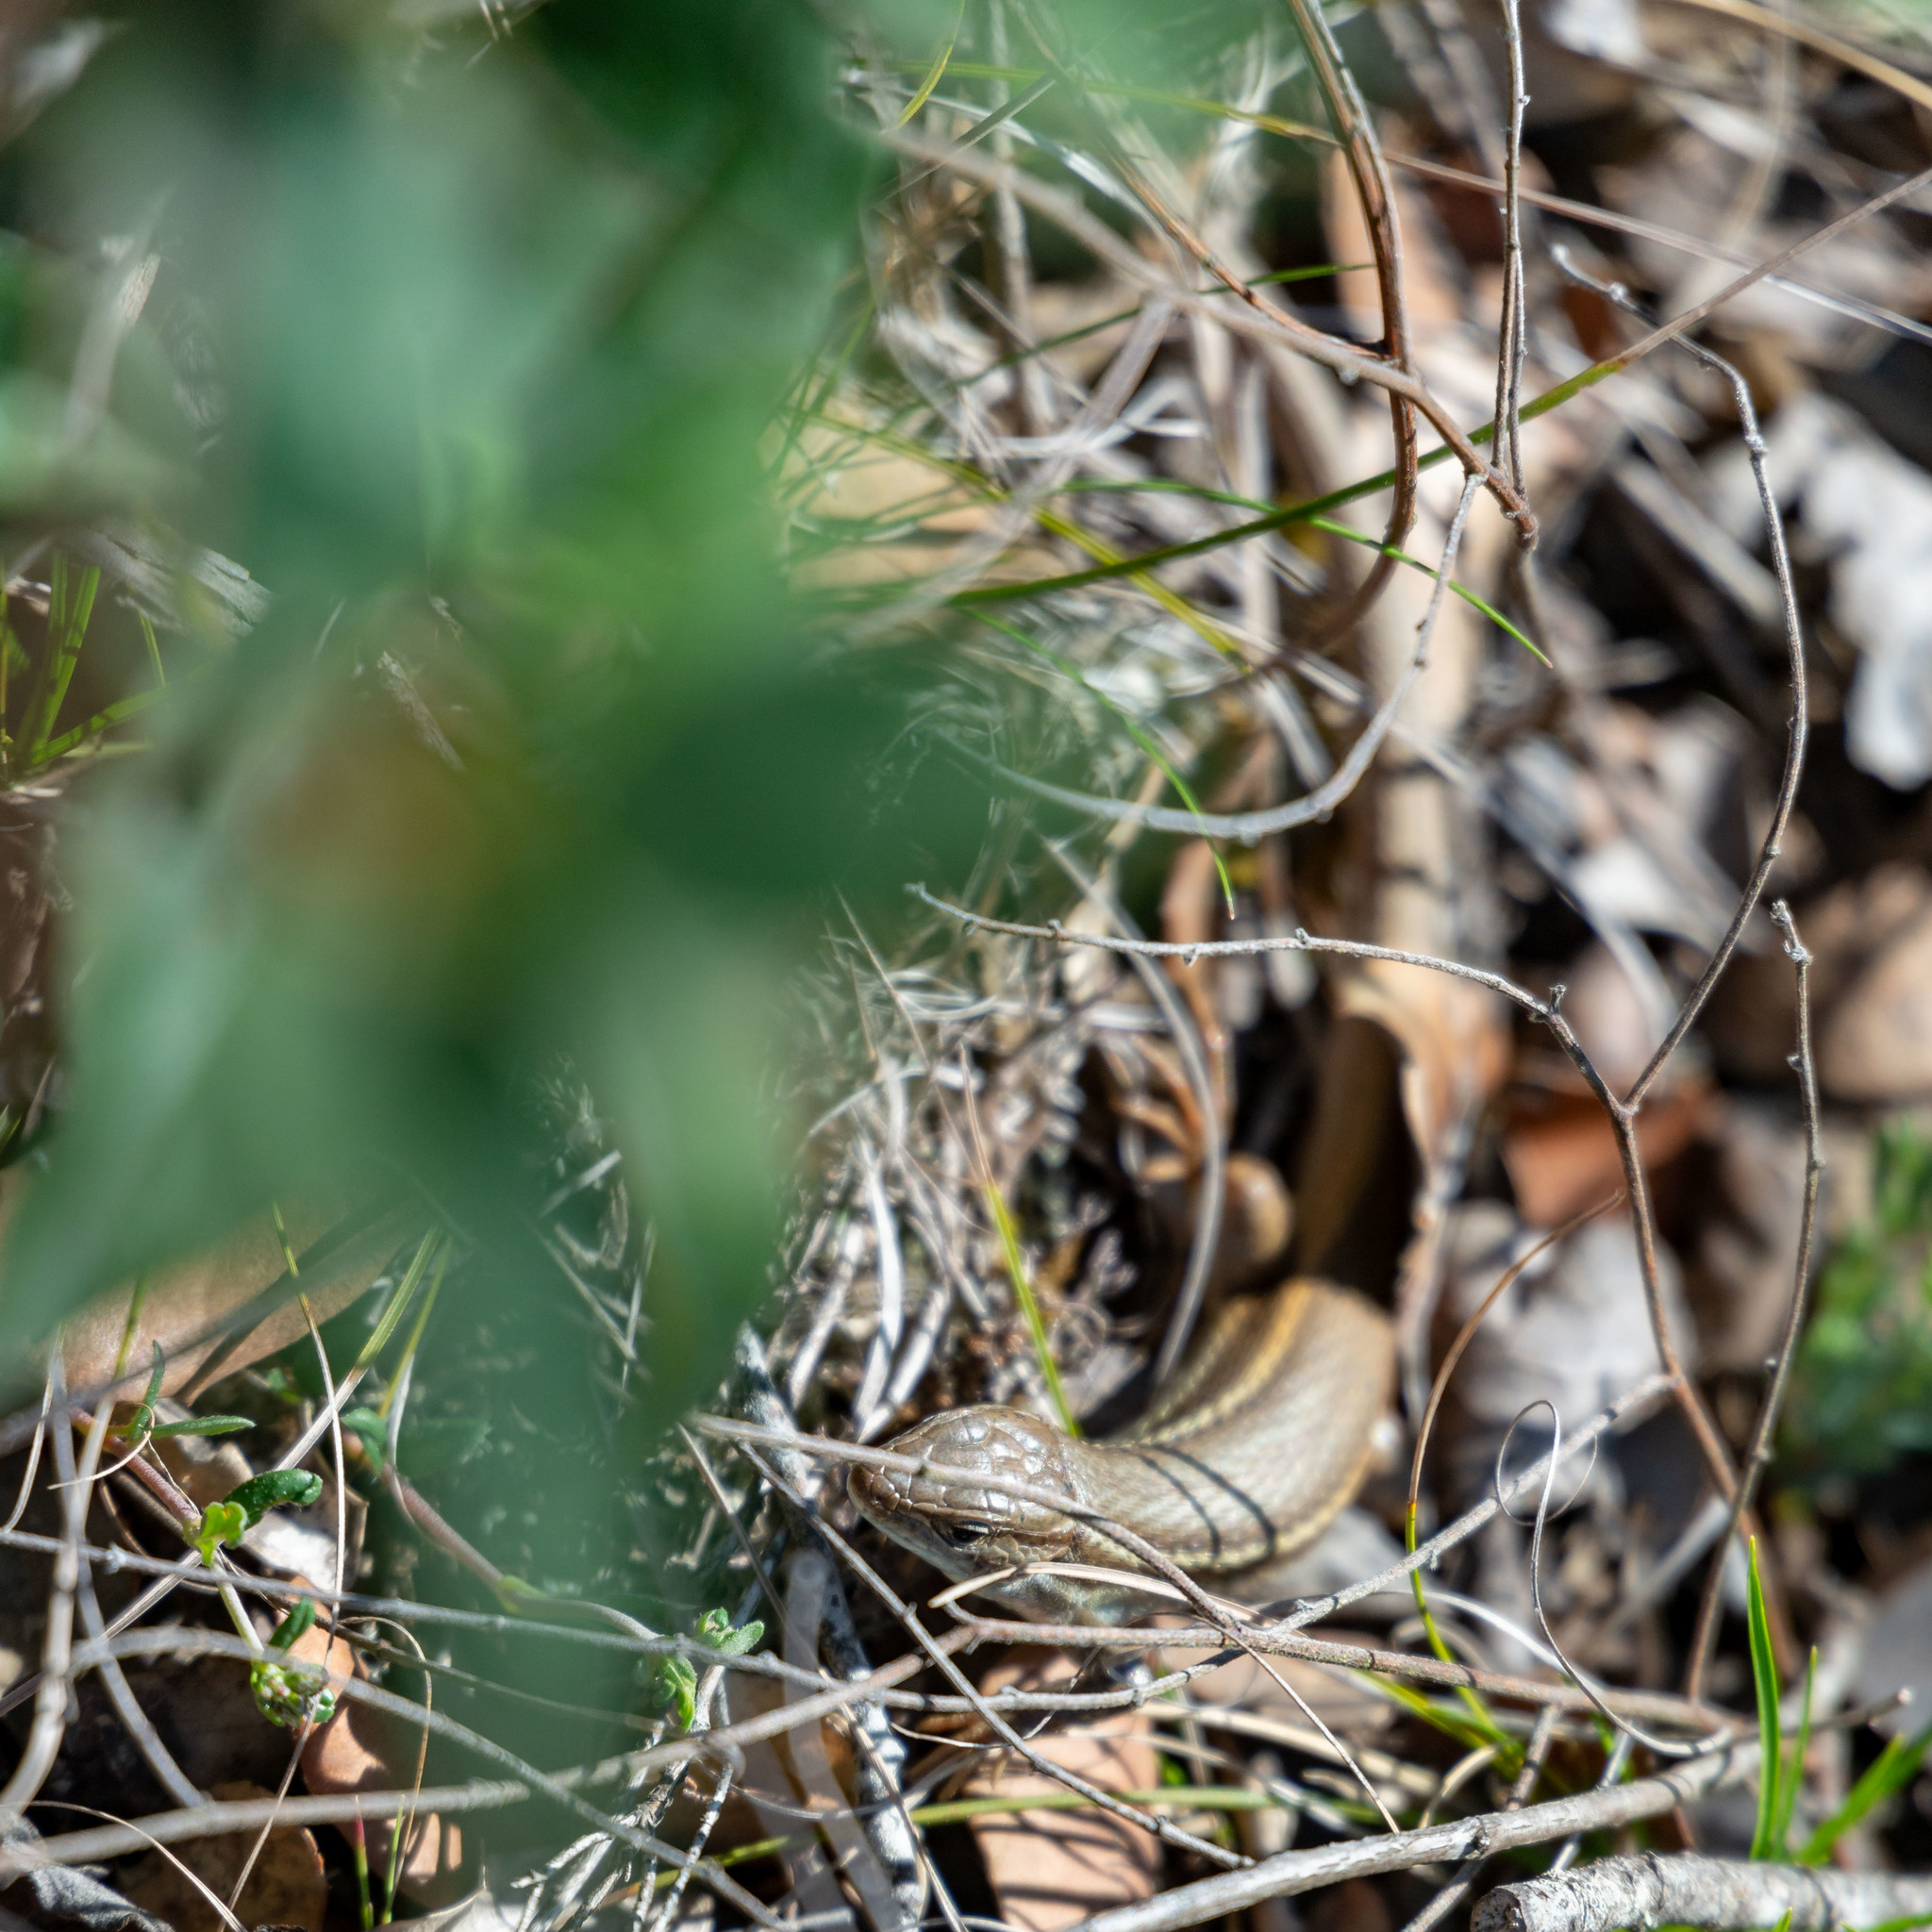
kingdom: Animalia
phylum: Chordata
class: Squamata
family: Lacertidae
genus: Psammodromus
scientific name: Psammodromus algirus
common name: Algerian psammodromus
